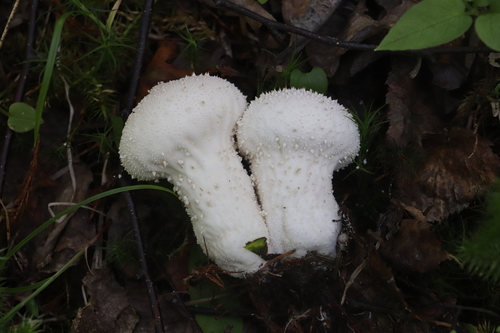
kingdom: Fungi
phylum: Basidiomycota
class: Agaricomycetes
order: Agaricales
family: Lycoperdaceae
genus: Lycoperdon
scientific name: Lycoperdon perlatum
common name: Common puffball
